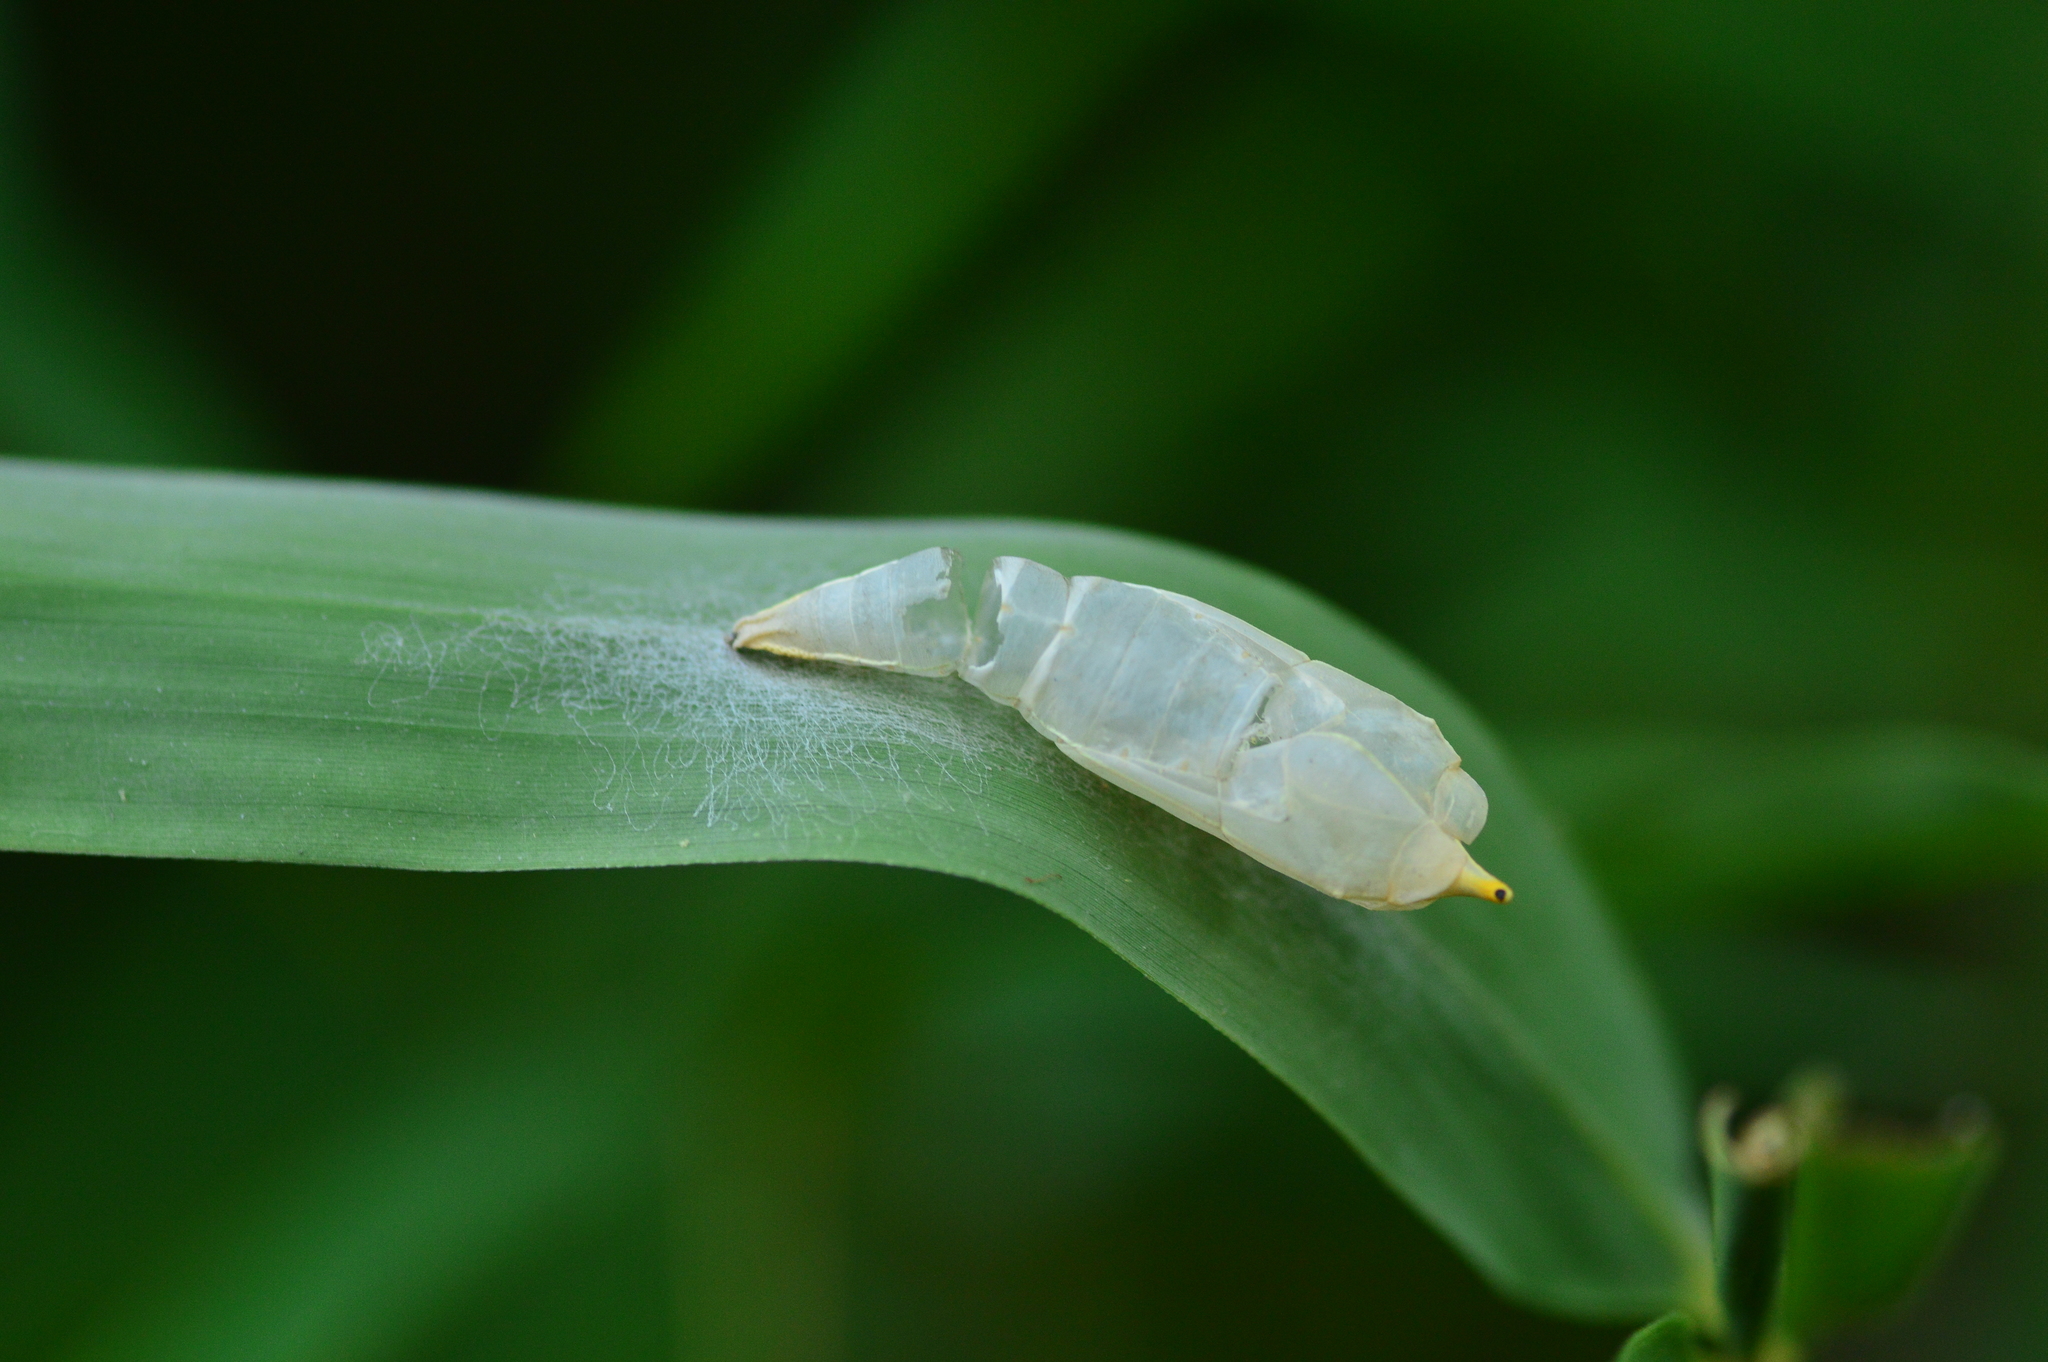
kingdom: Animalia
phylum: Arthropoda
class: Insecta
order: Lepidoptera
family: Pieridae
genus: Catopsilia
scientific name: Catopsilia pomona
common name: Common emigrant
